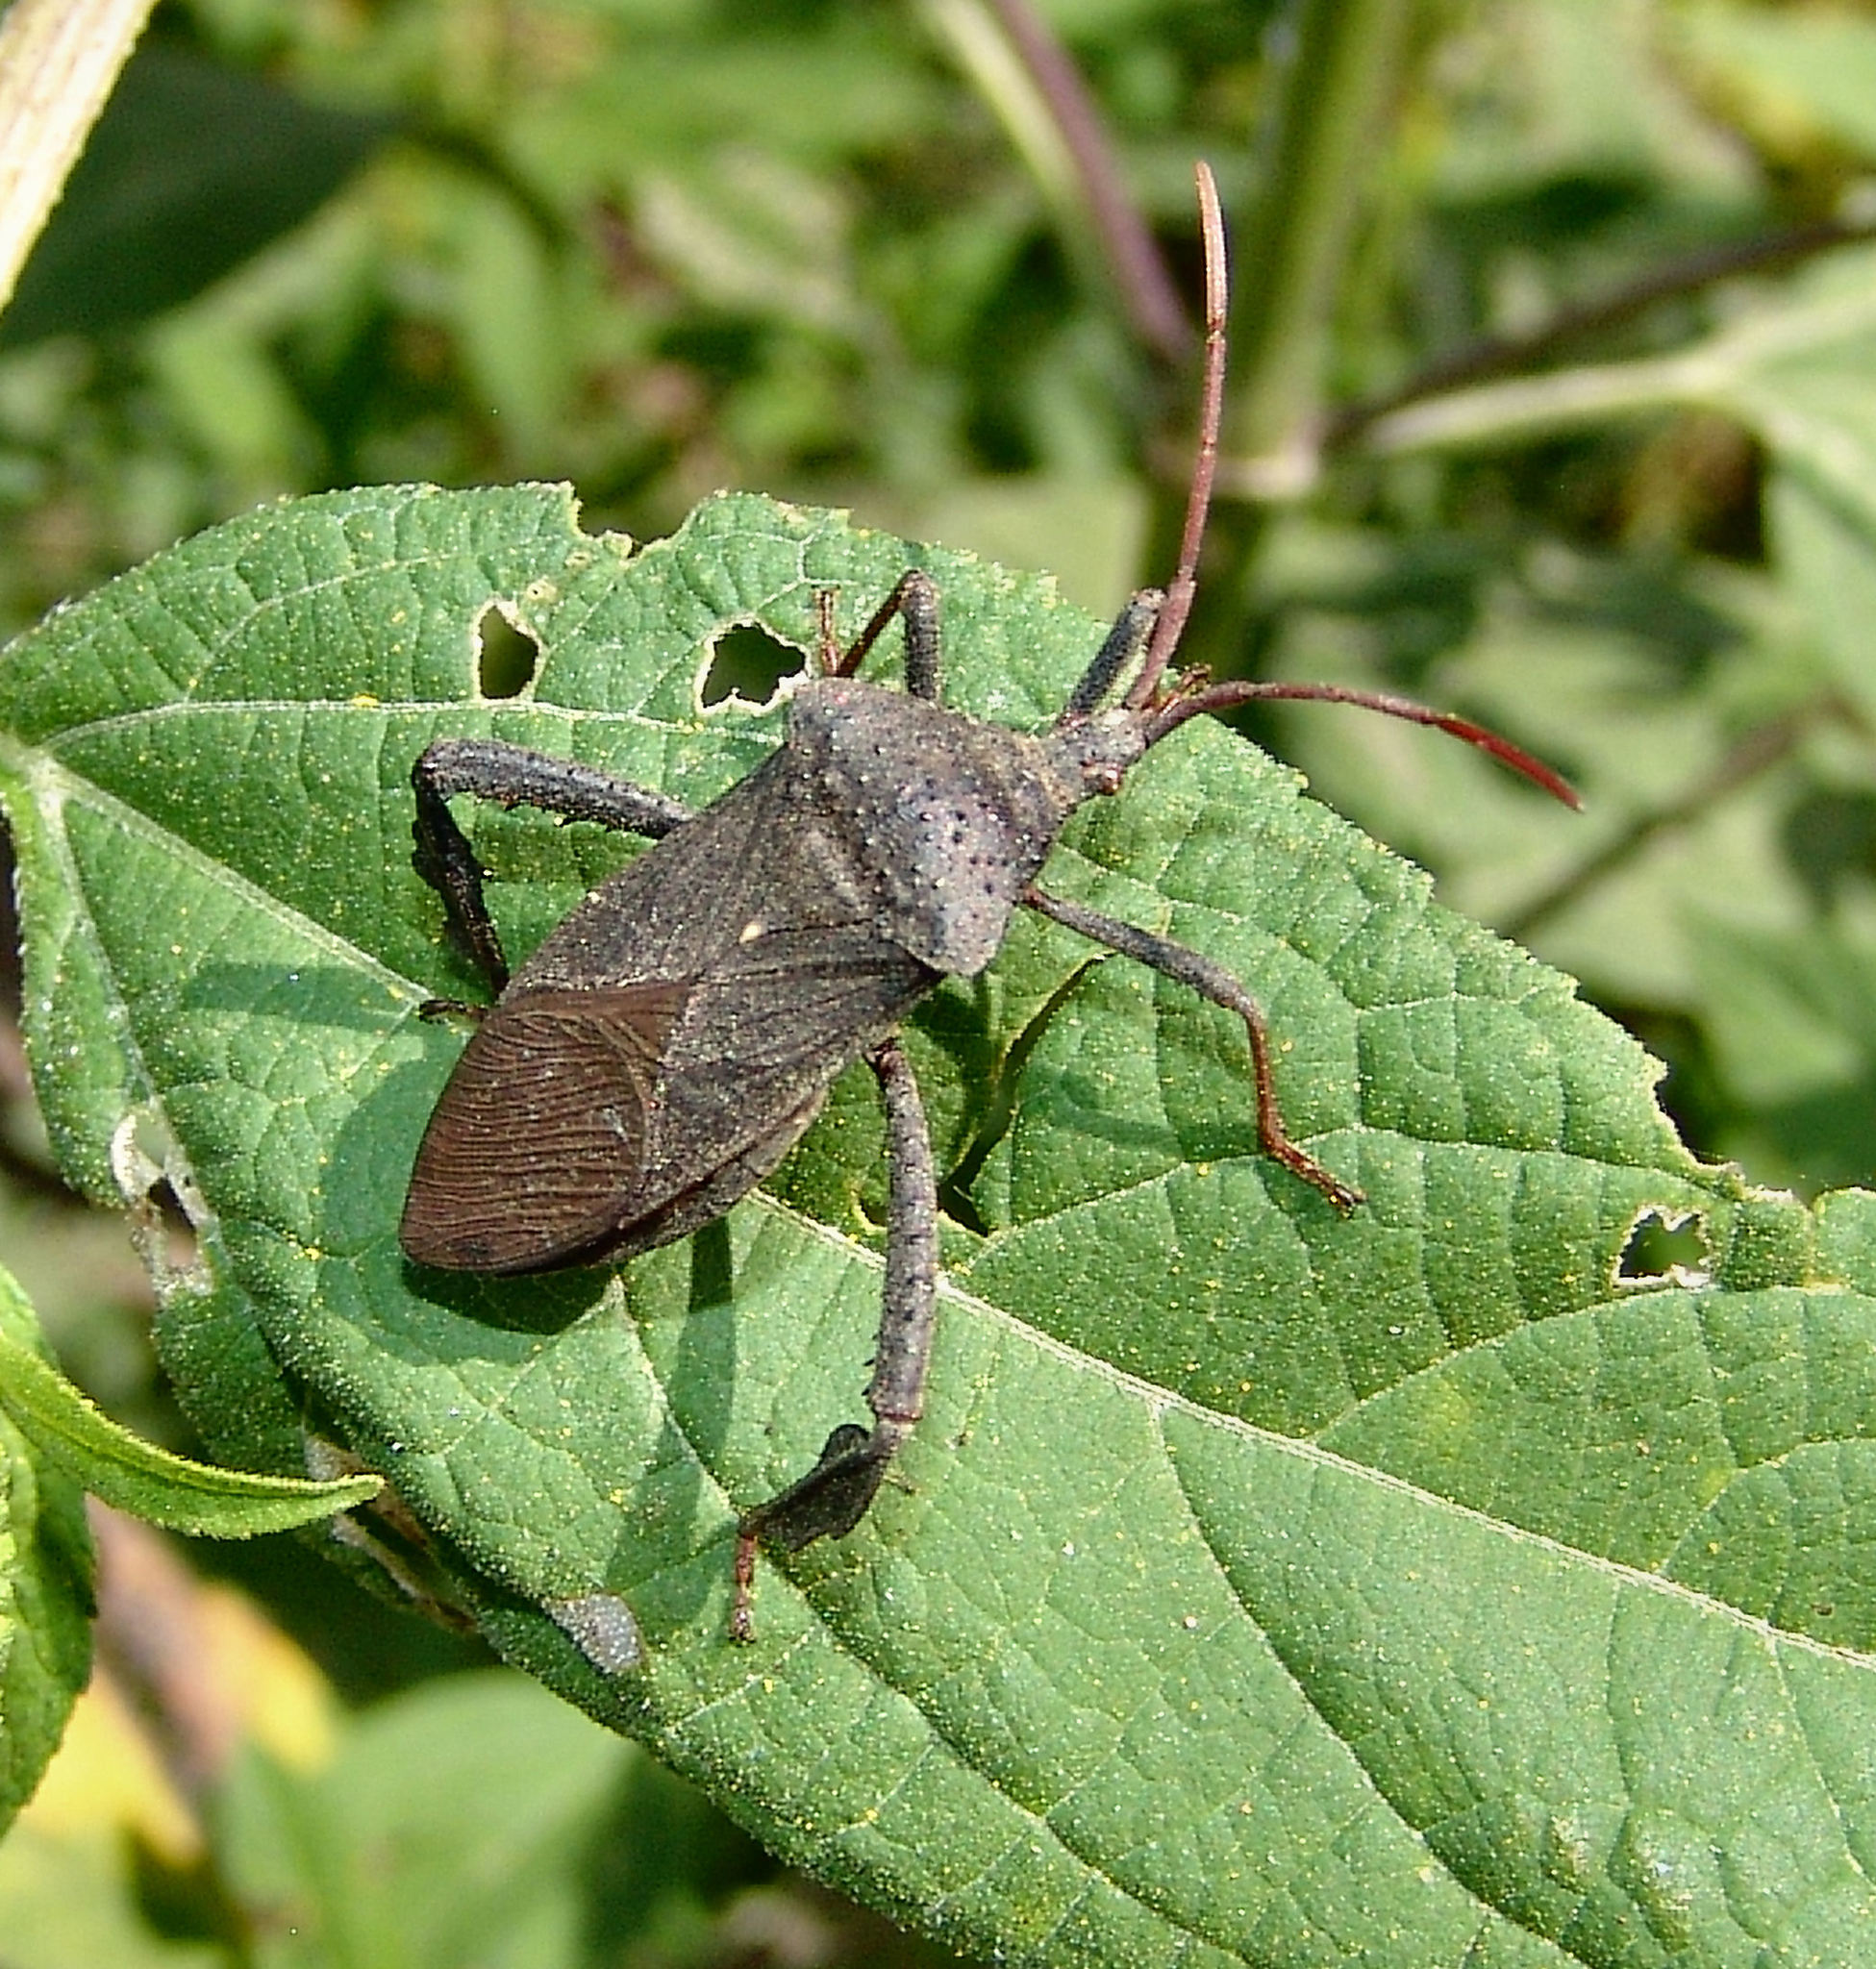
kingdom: Animalia
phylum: Arthropoda
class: Insecta
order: Hemiptera
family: Coreidae
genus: Acanthocephala
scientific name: Acanthocephala femorata
